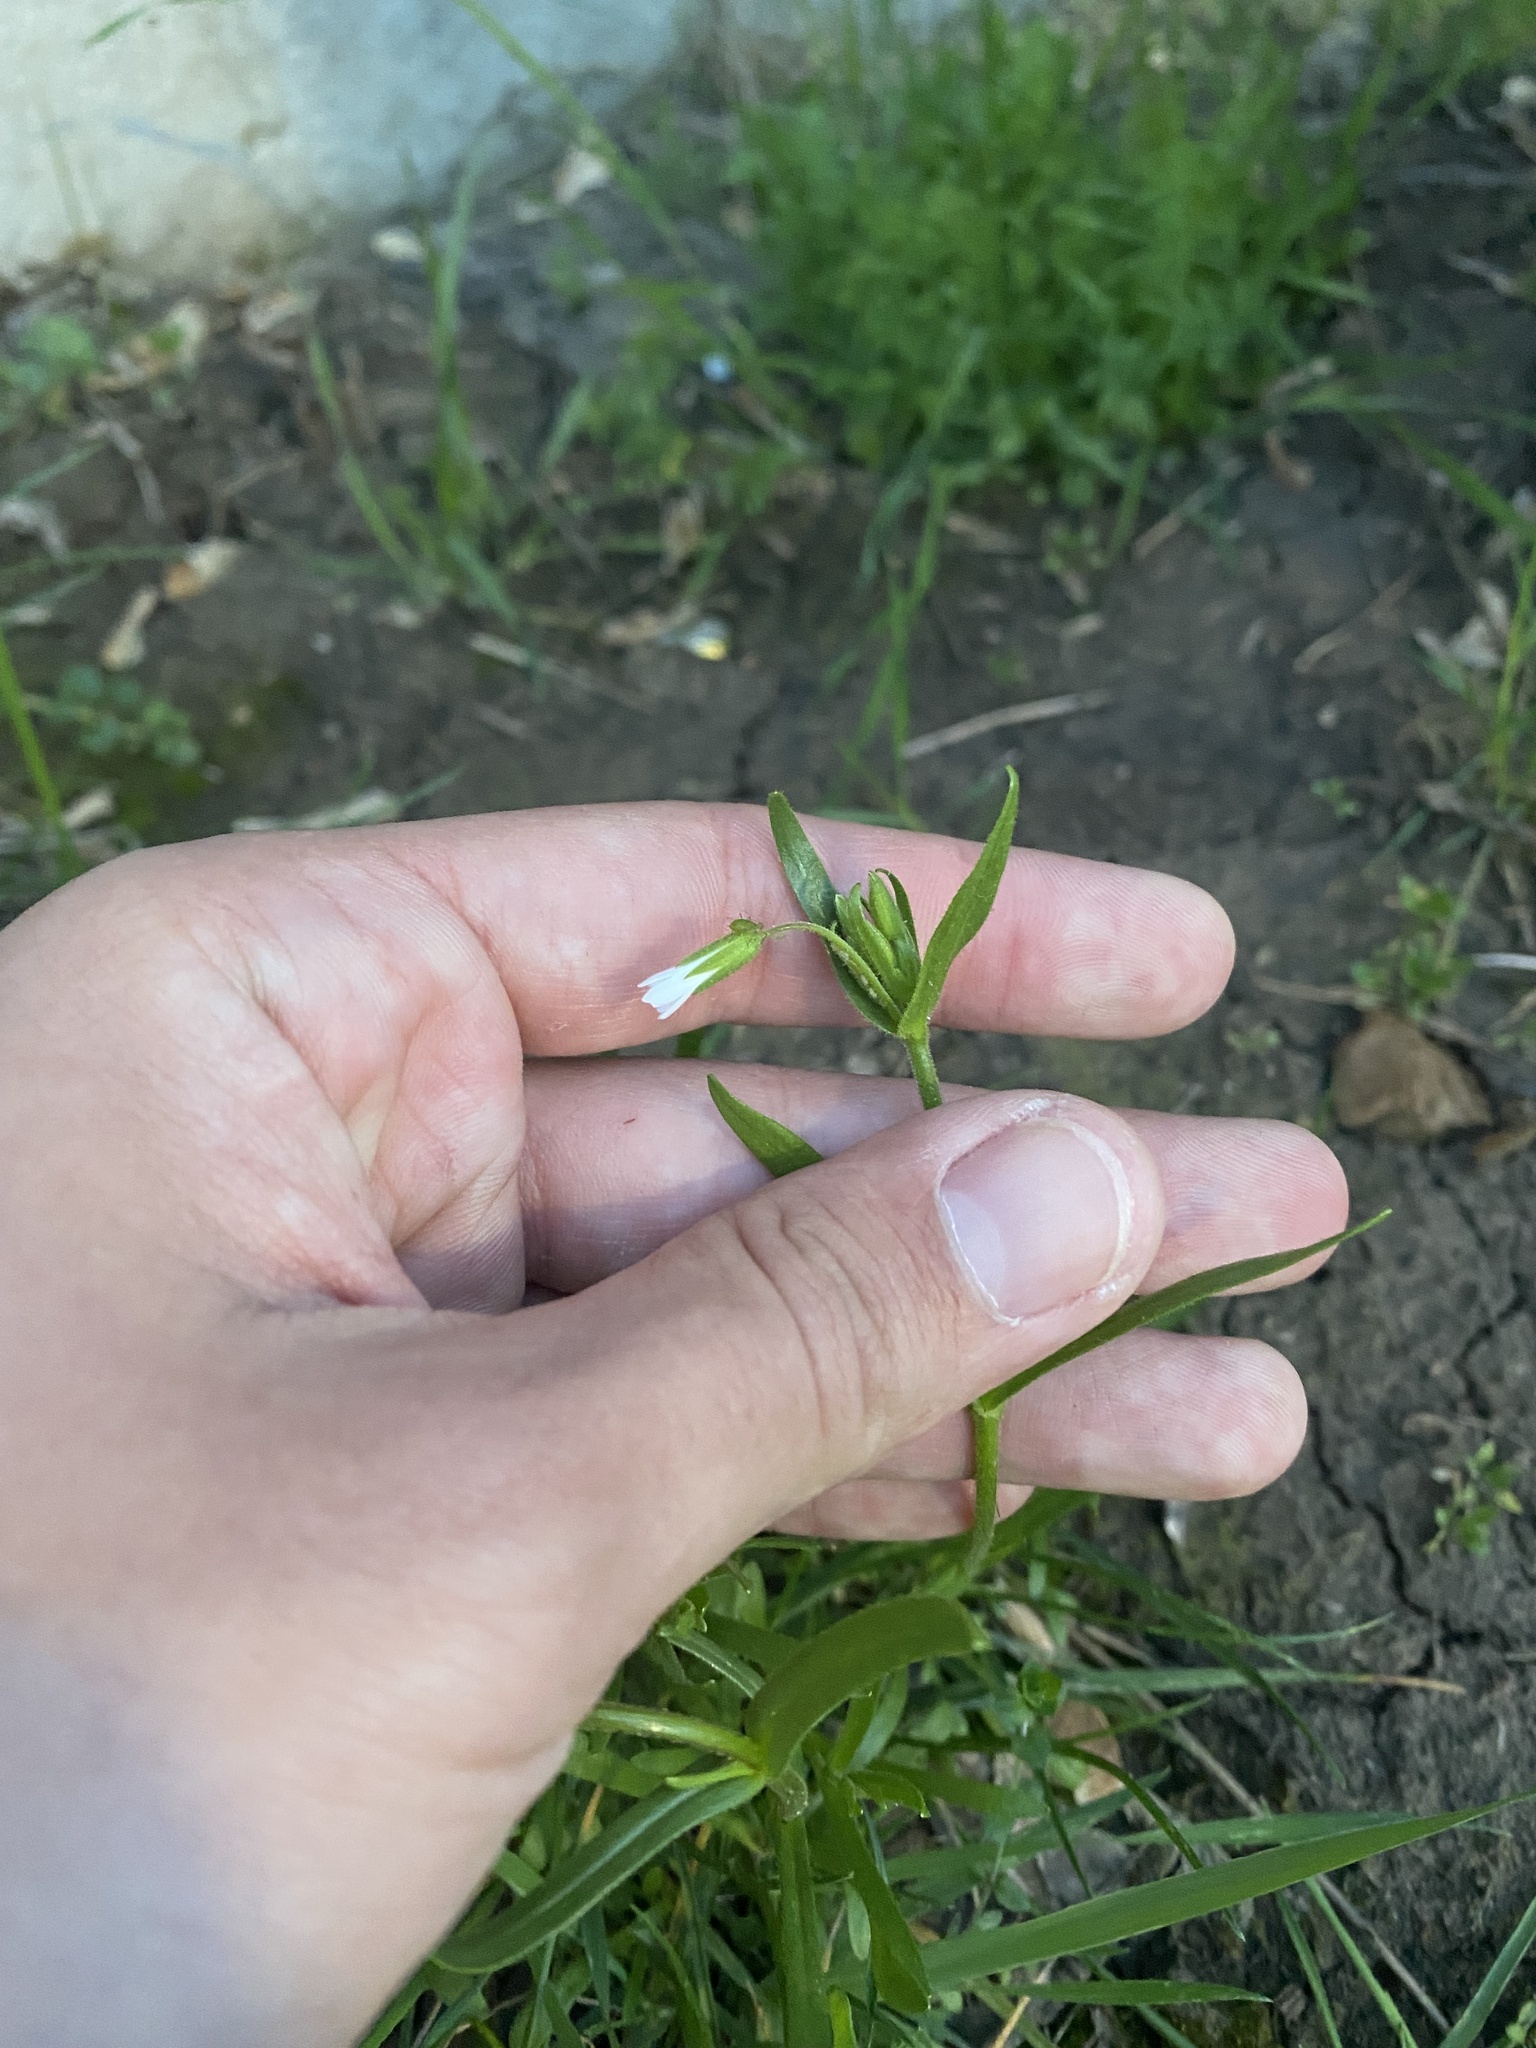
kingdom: Plantae
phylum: Tracheophyta
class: Magnoliopsida
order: Caryophyllales
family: Caryophyllaceae
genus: Dichodon
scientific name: Dichodon viscidum
